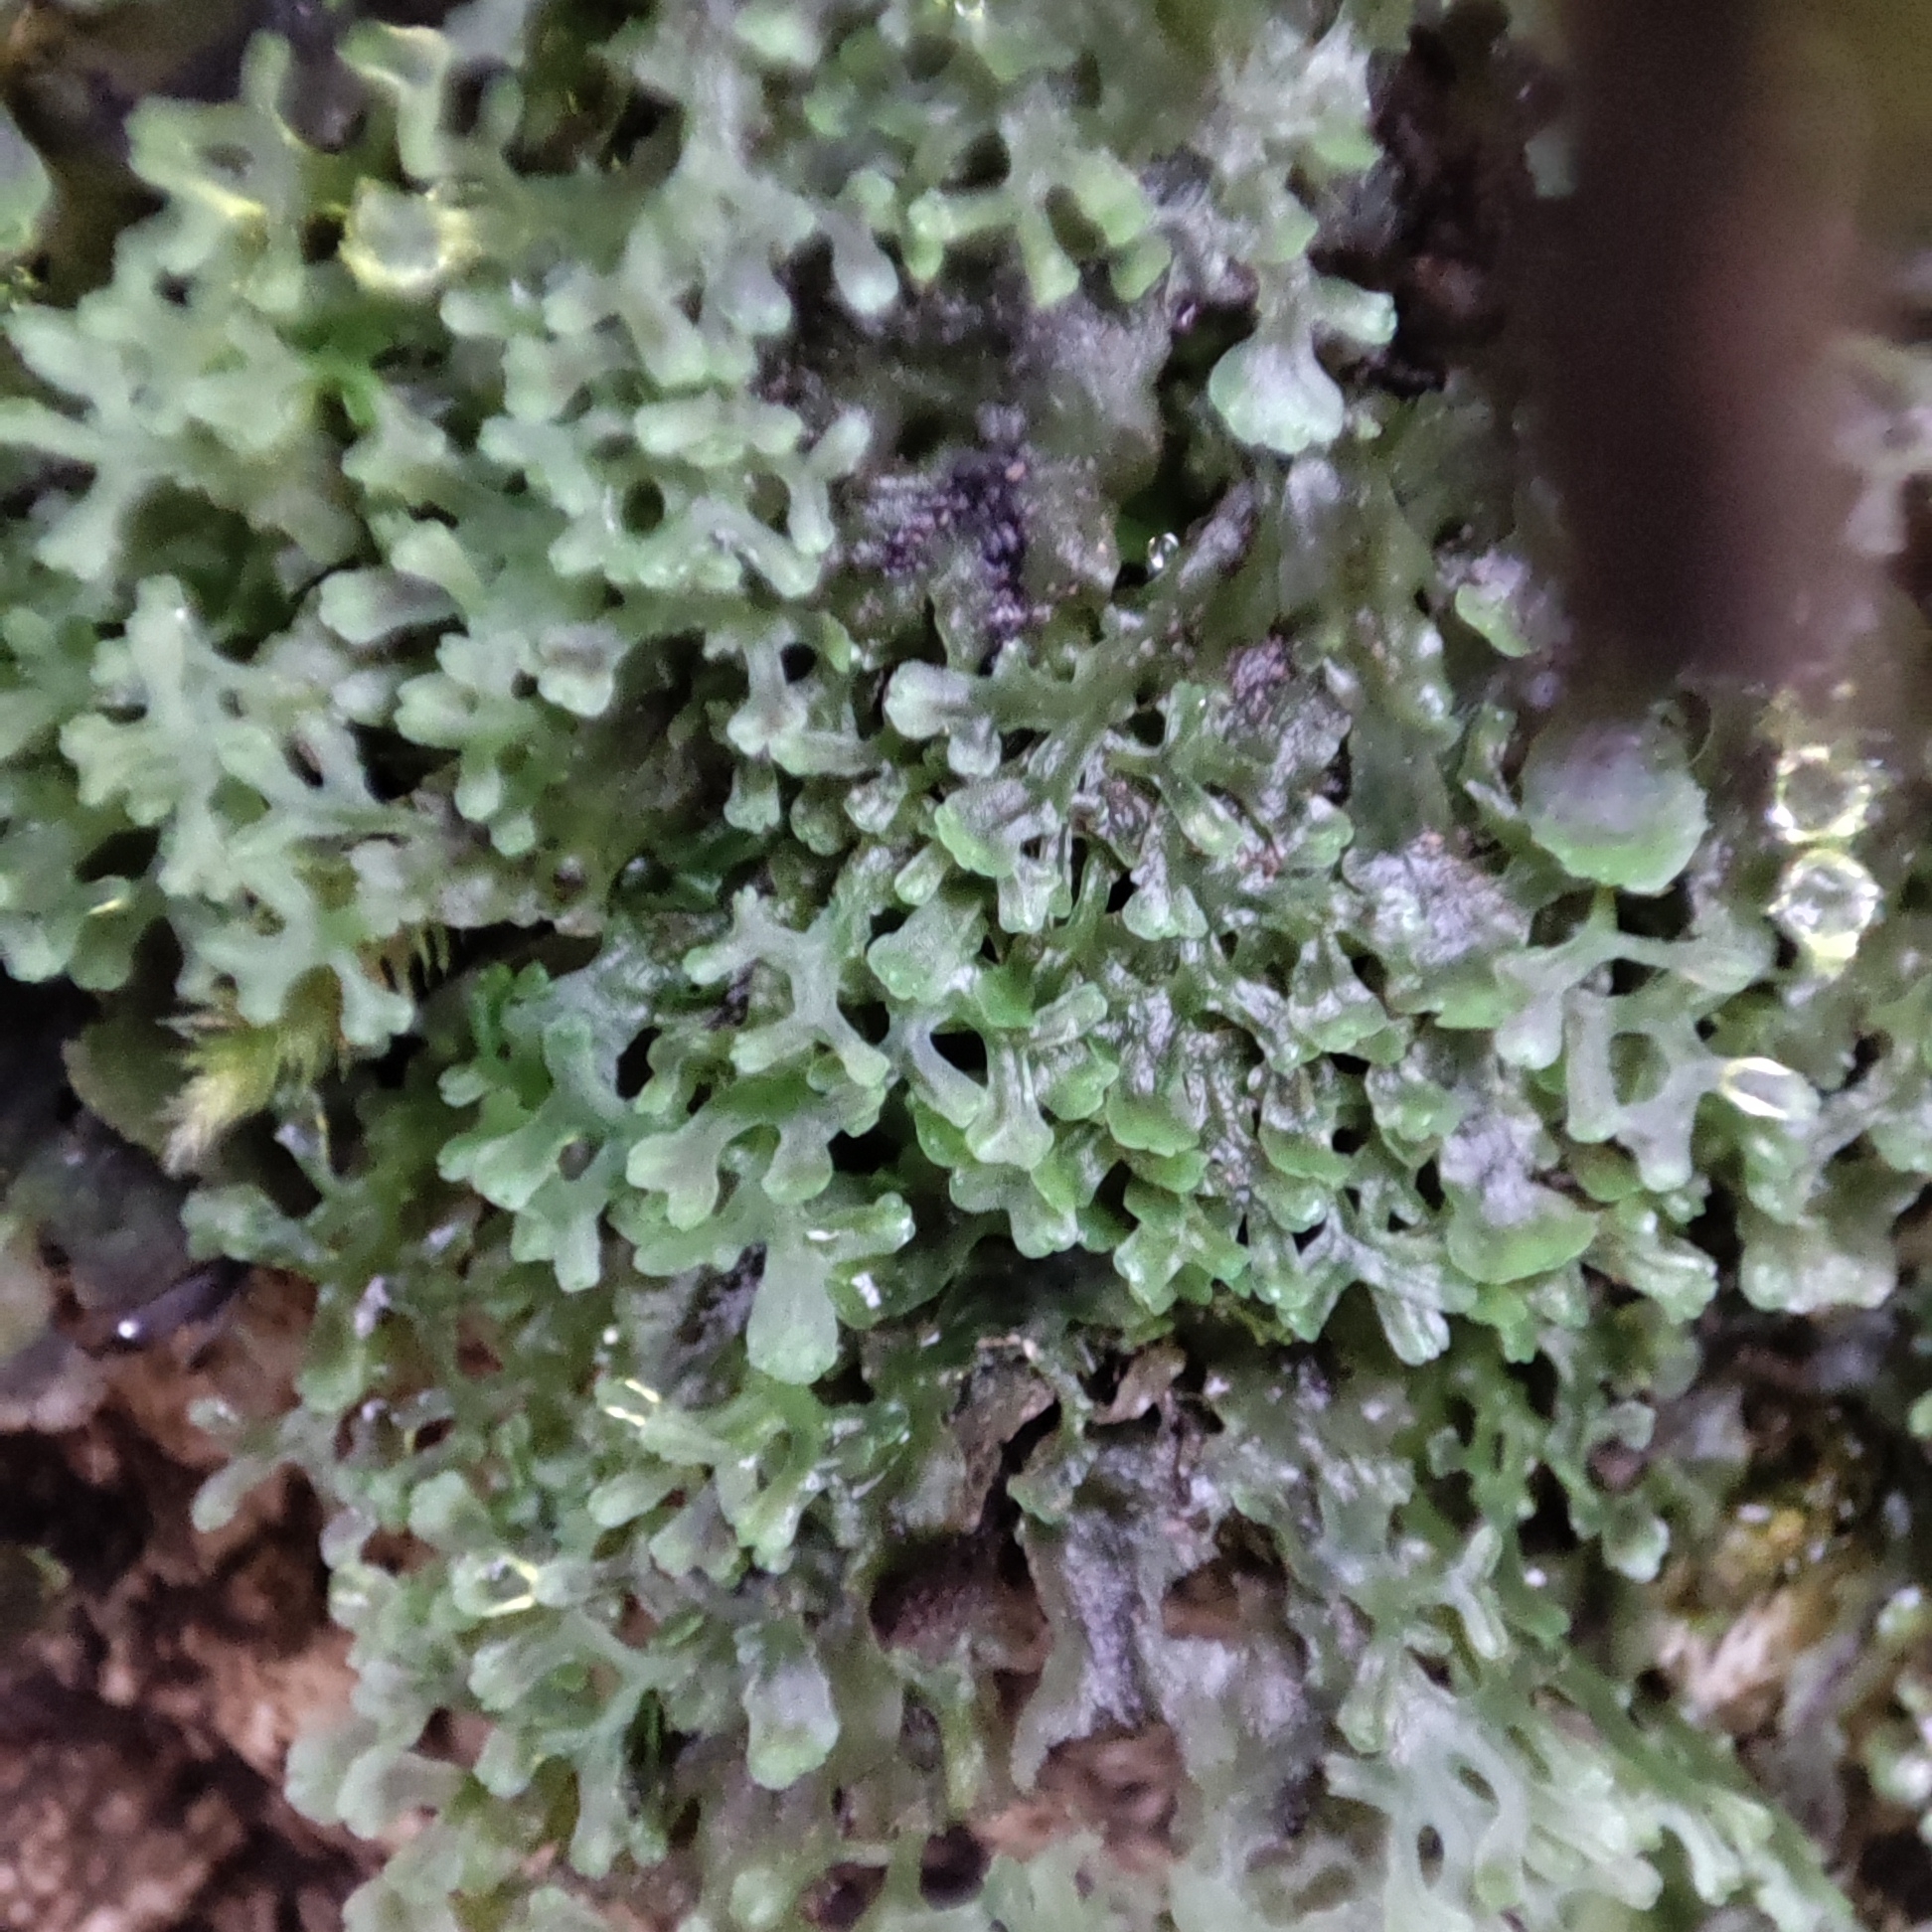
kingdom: Plantae
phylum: Marchantiophyta
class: Jungermanniopsida
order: Pelliales
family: Pelliaceae
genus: Apopellia
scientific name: Apopellia endiviifolia
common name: Endive pellia
